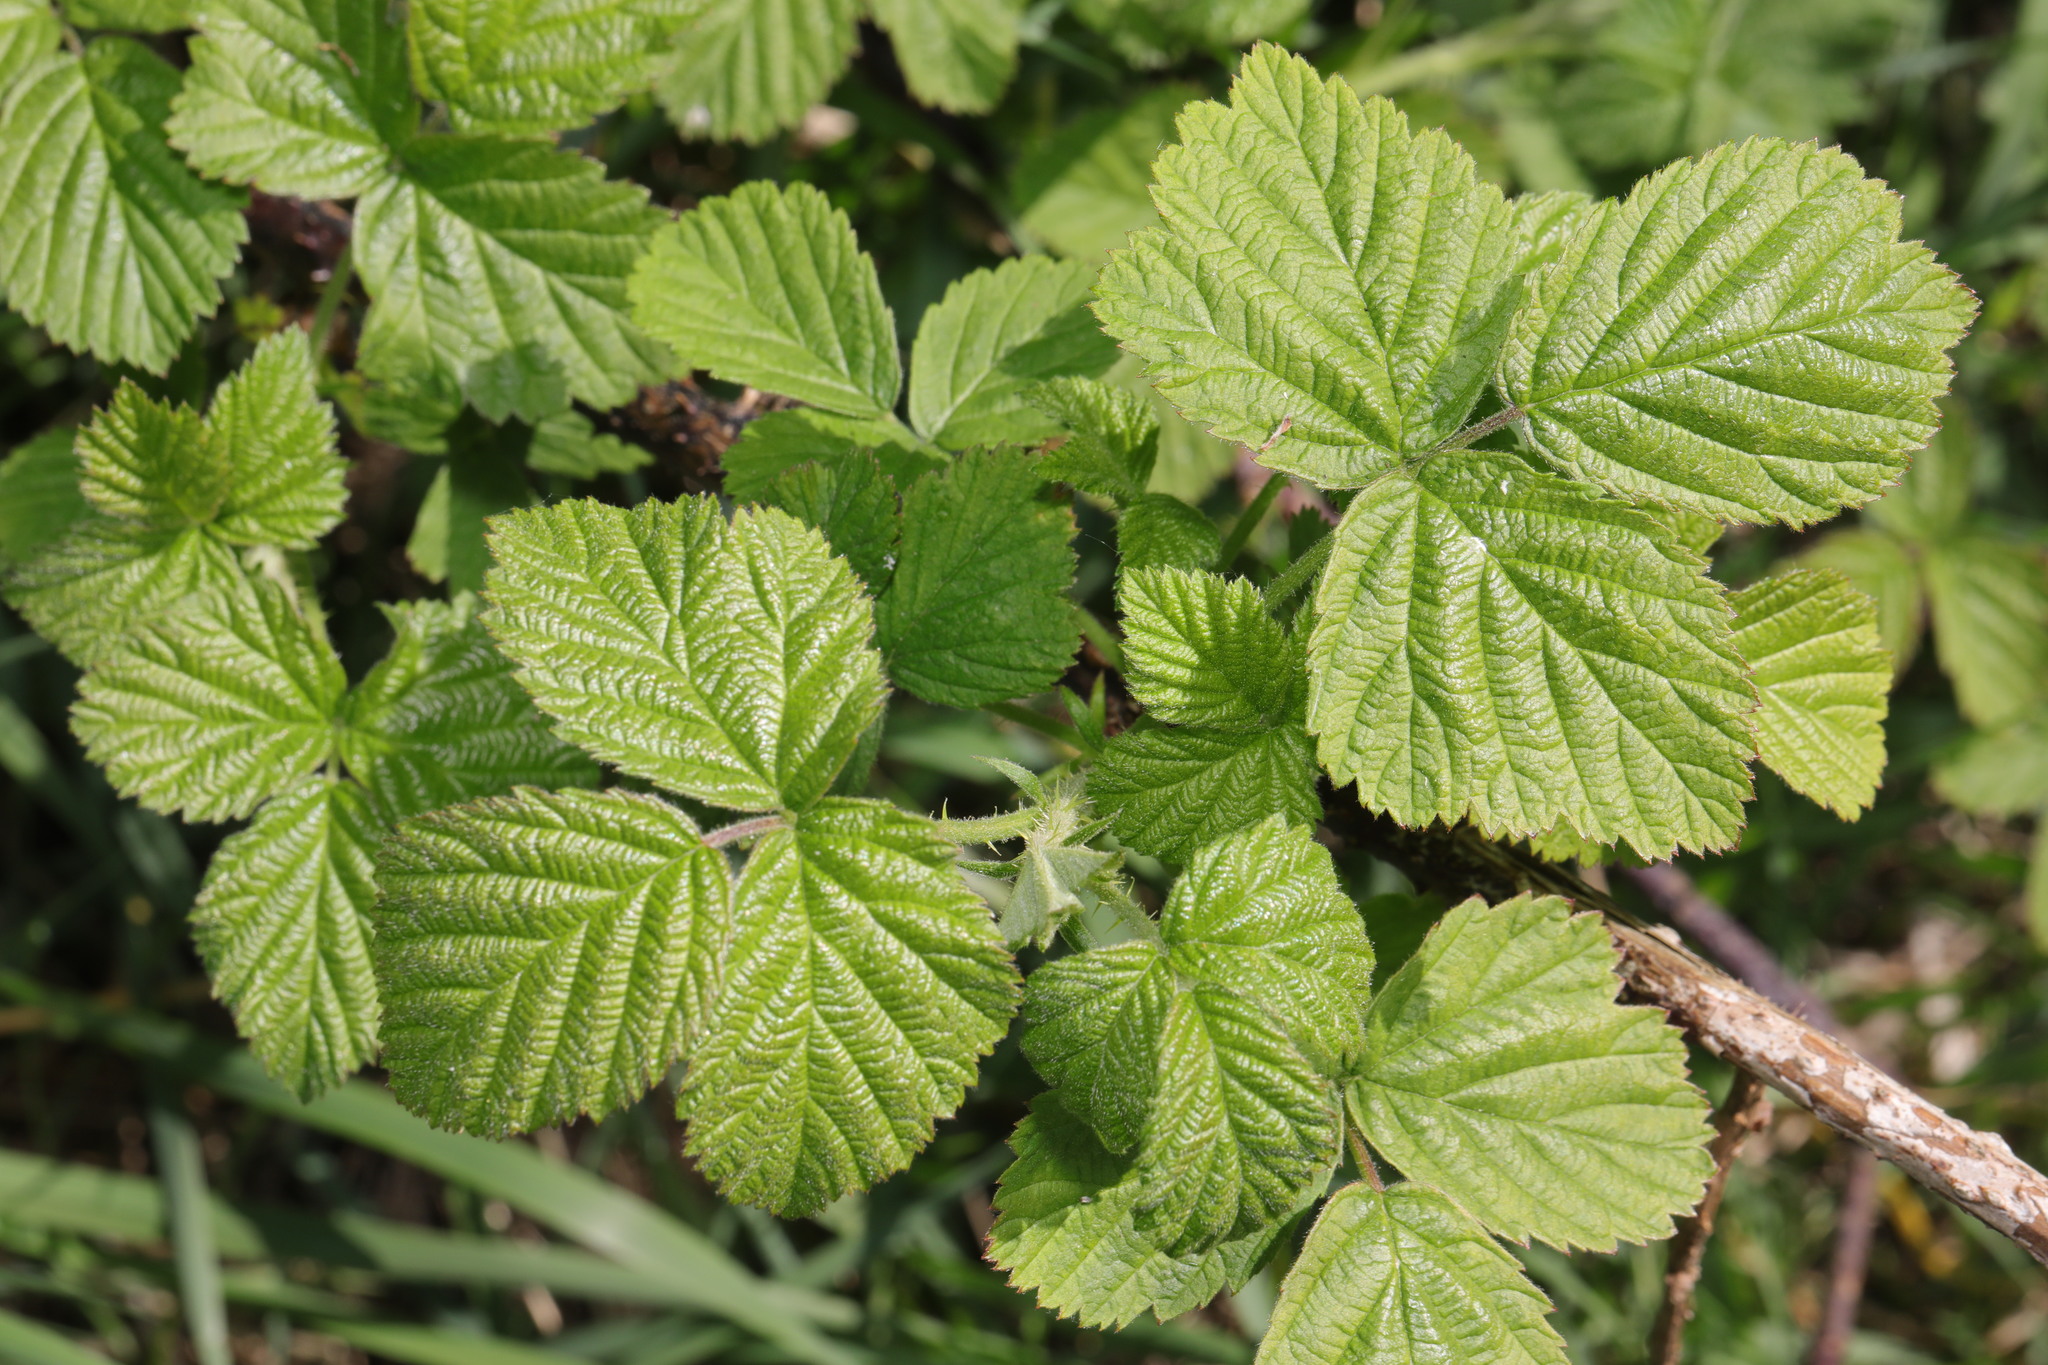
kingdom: Plantae
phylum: Tracheophyta
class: Magnoliopsida
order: Rosales
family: Rosaceae
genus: Rubus
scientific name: Rubus horrefactus
